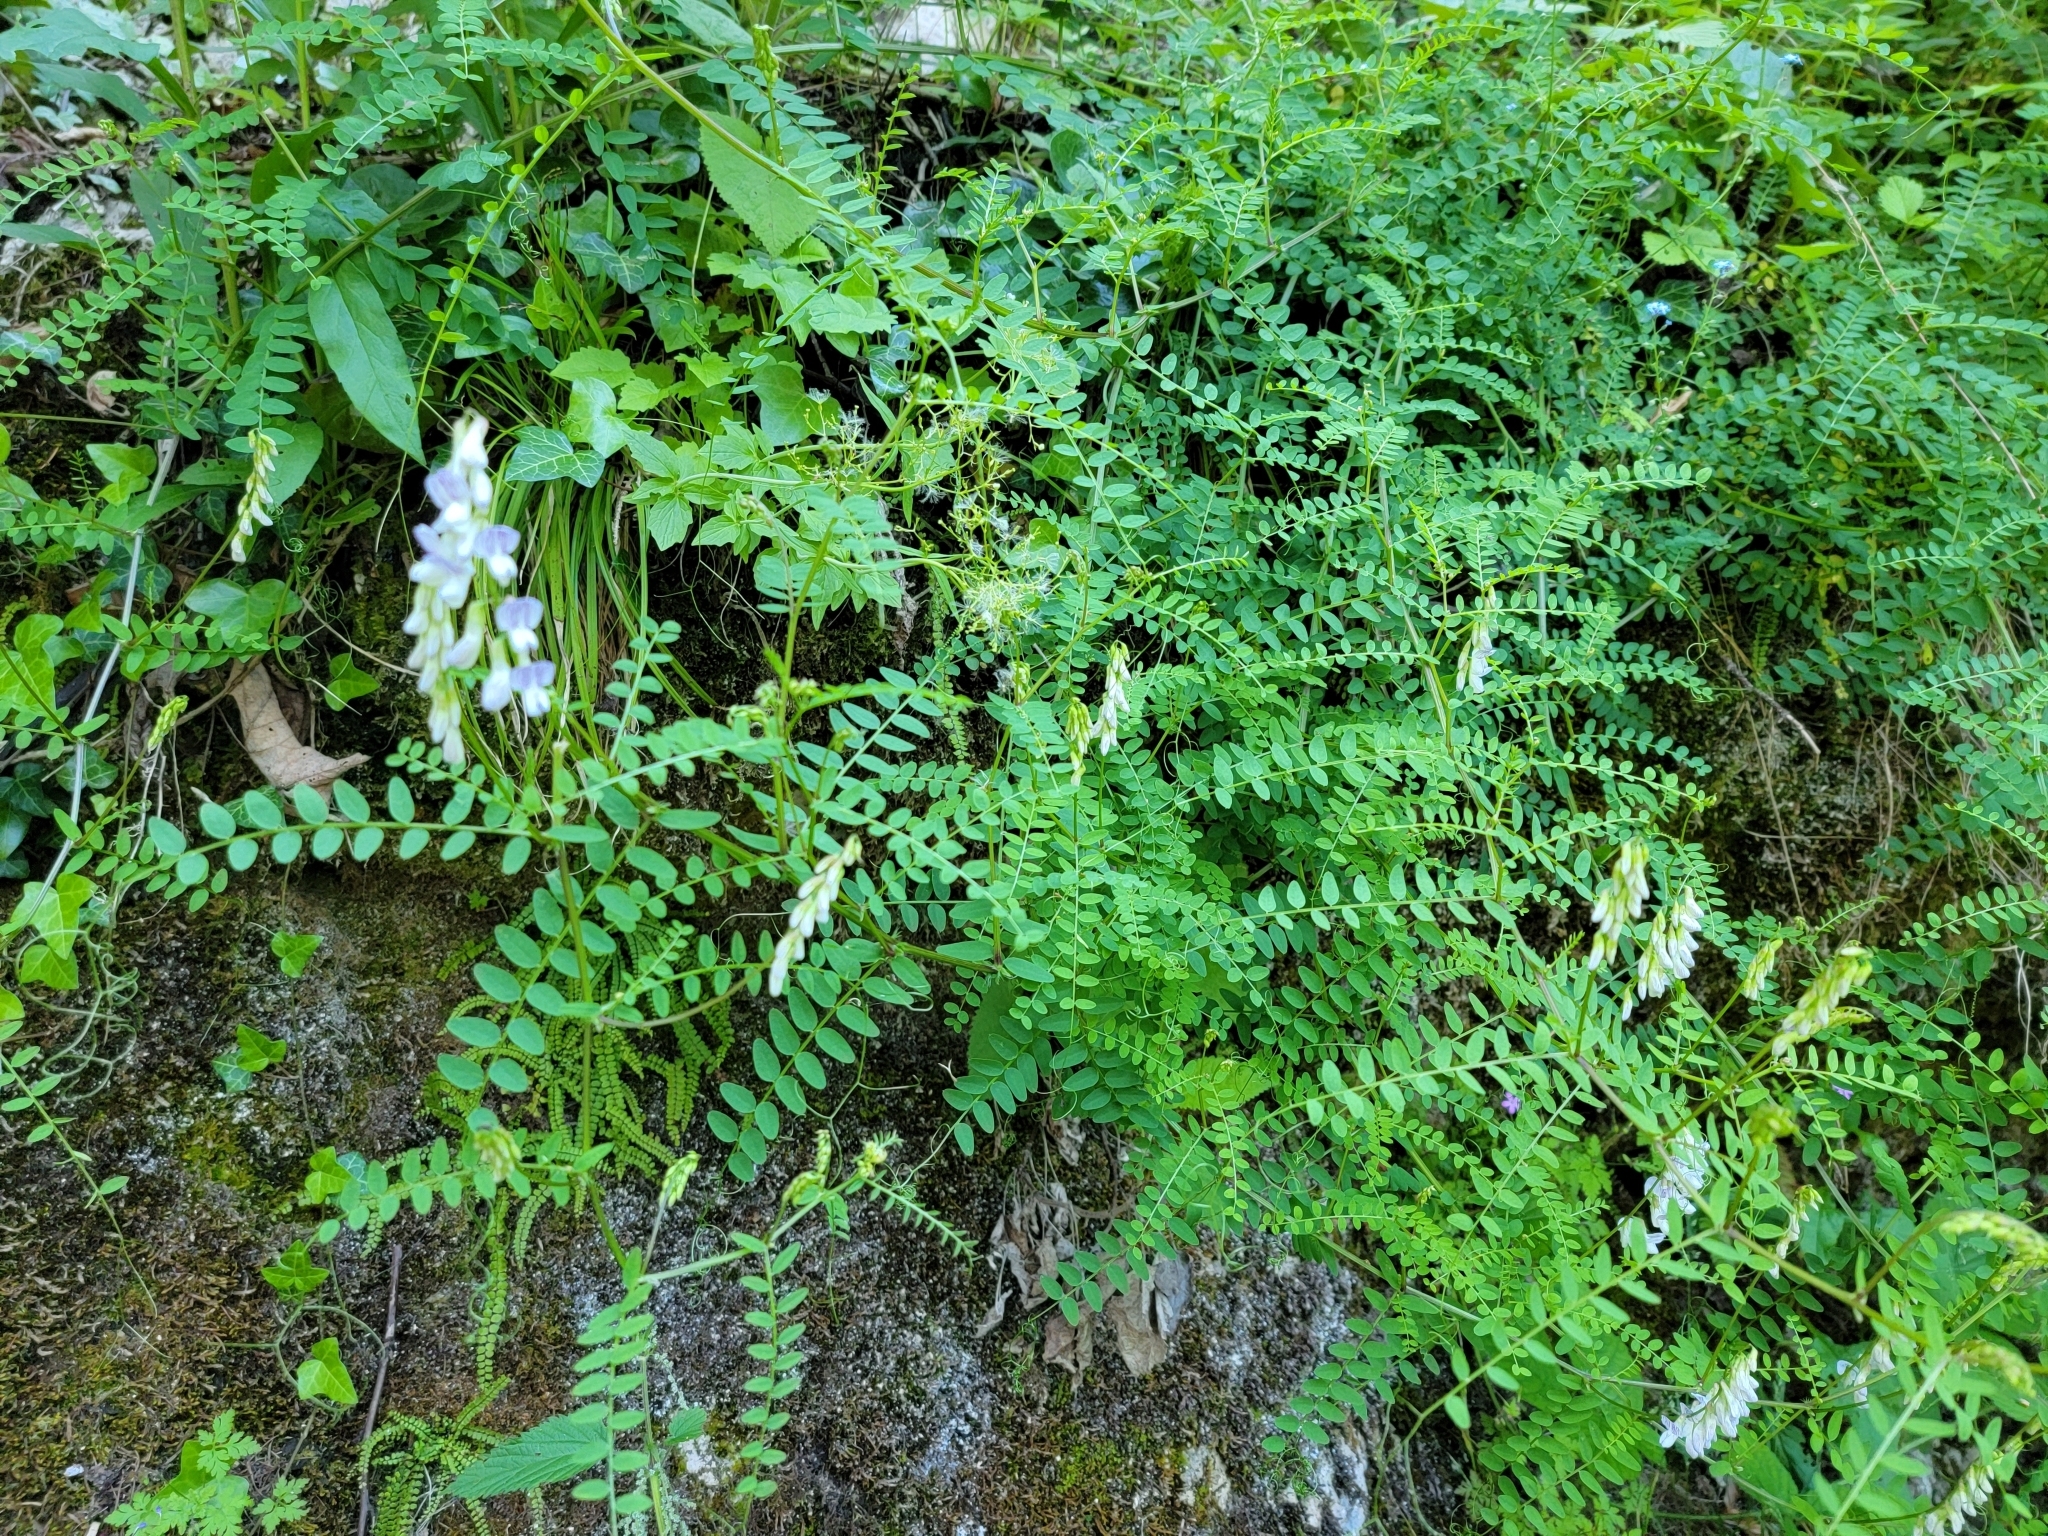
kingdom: Plantae
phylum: Tracheophyta
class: Magnoliopsida
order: Fabales
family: Fabaceae
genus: Vicia
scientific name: Vicia sylvatica
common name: Wood vetch
